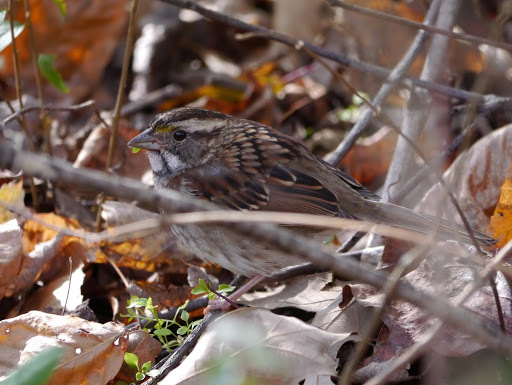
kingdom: Animalia
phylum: Chordata
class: Aves
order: Passeriformes
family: Passerellidae
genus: Zonotrichia
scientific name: Zonotrichia albicollis
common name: White-throated sparrow
